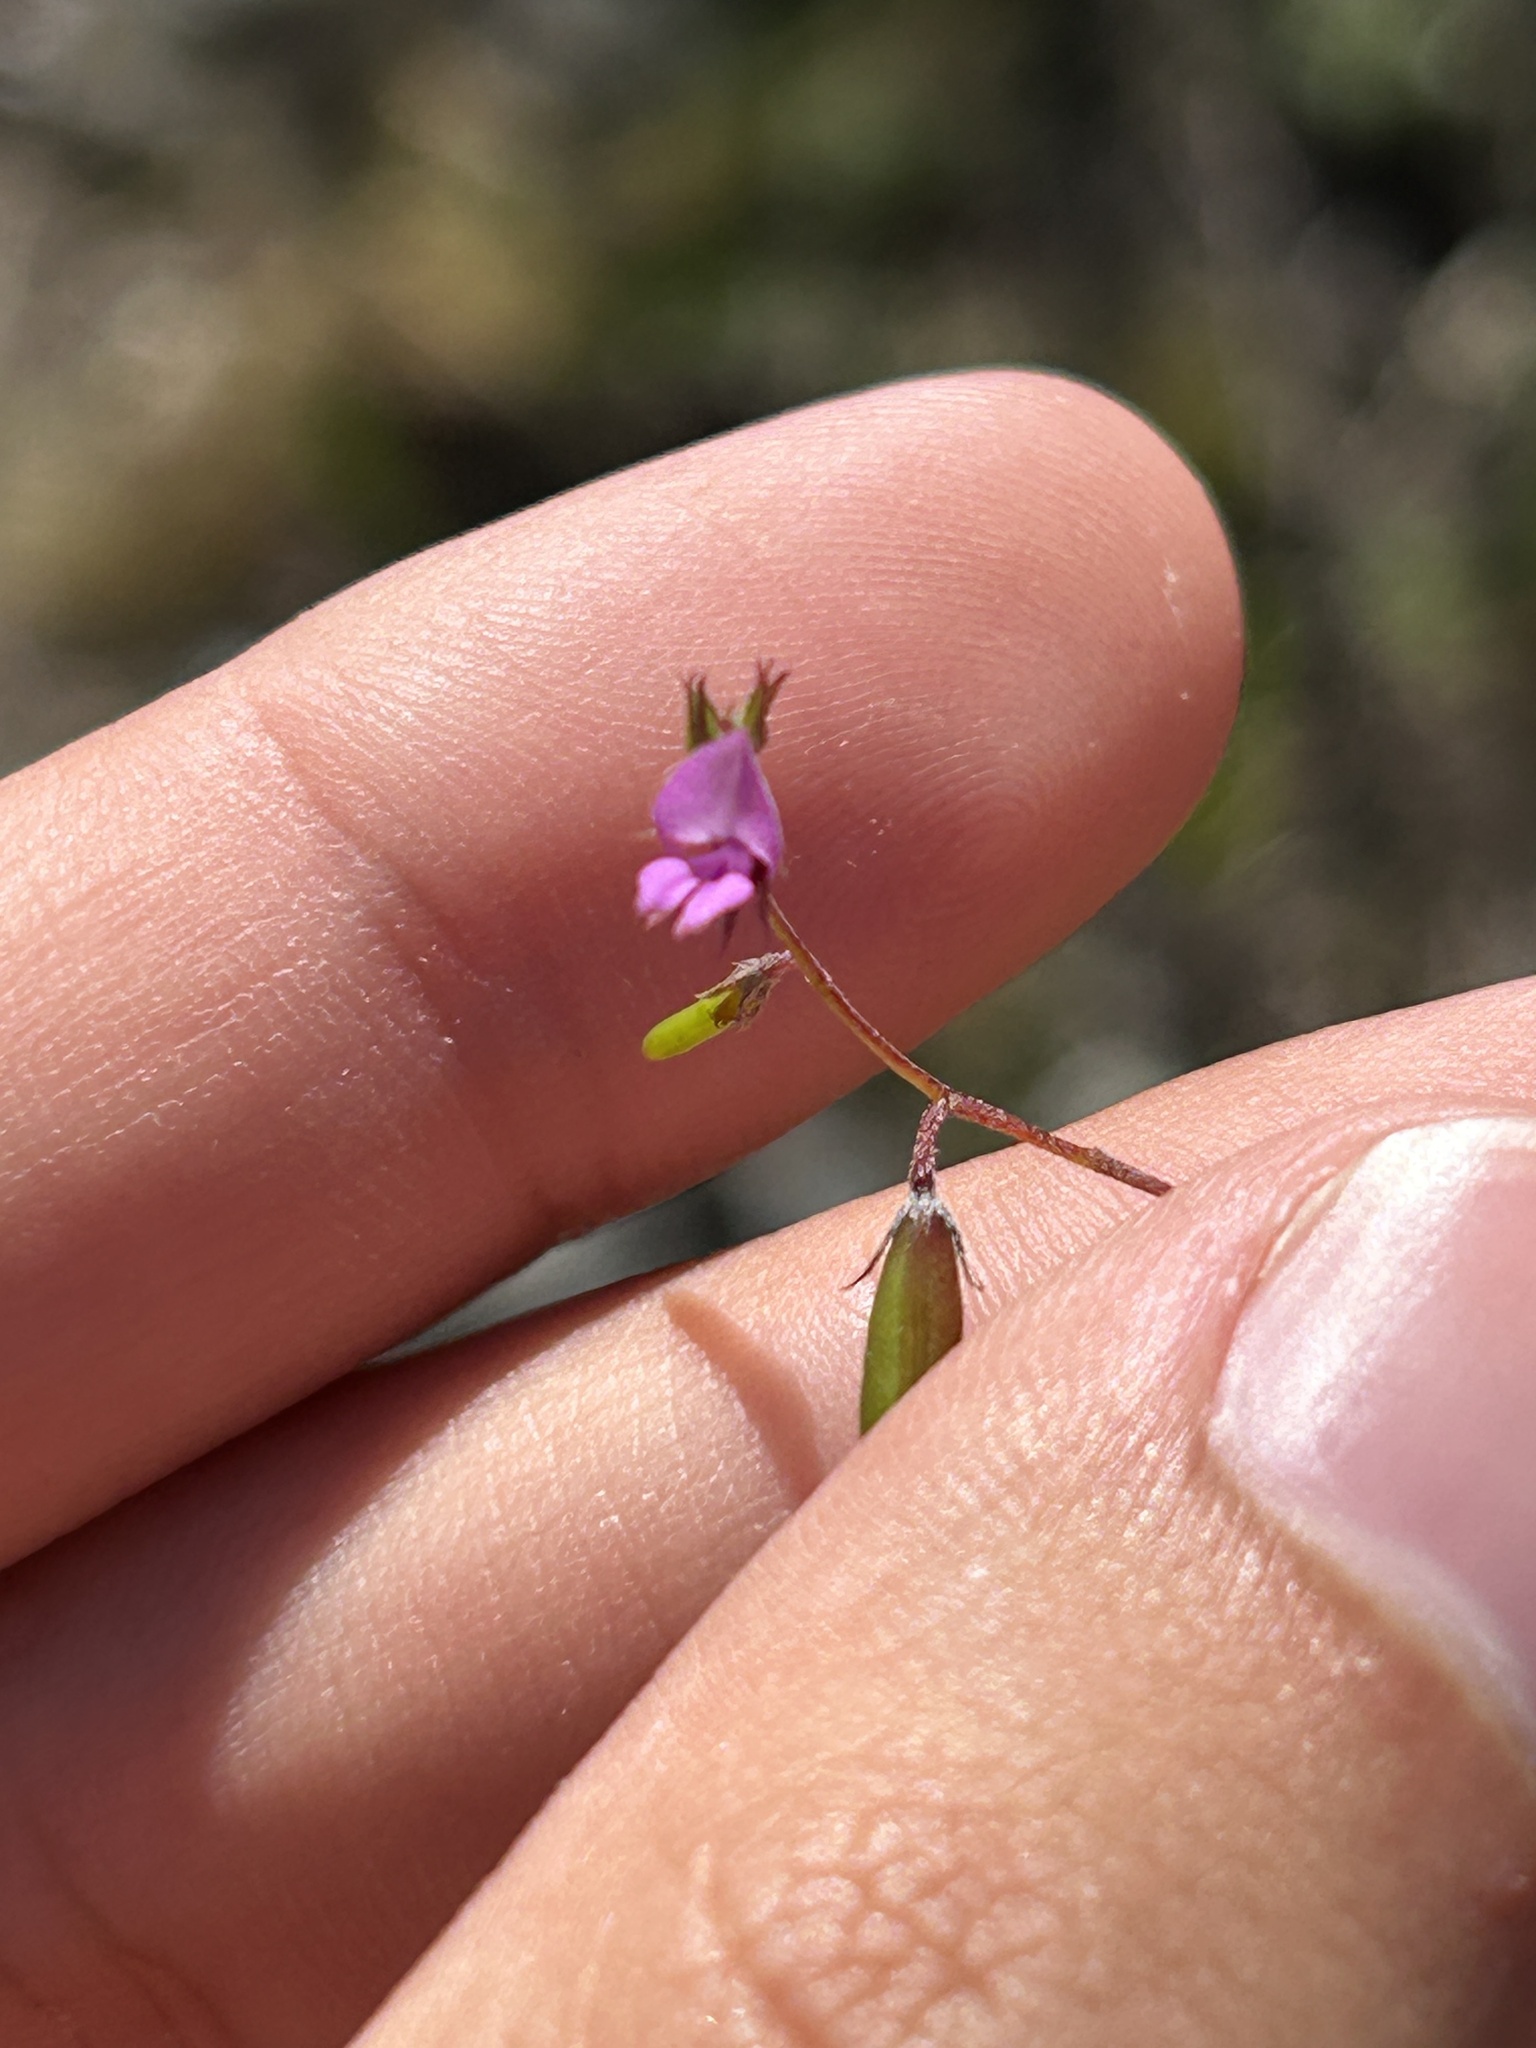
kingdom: Plantae
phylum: Tracheophyta
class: Magnoliopsida
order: Fabales
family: Fabaceae
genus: Indigofera
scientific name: Indigofera sarmentosa
